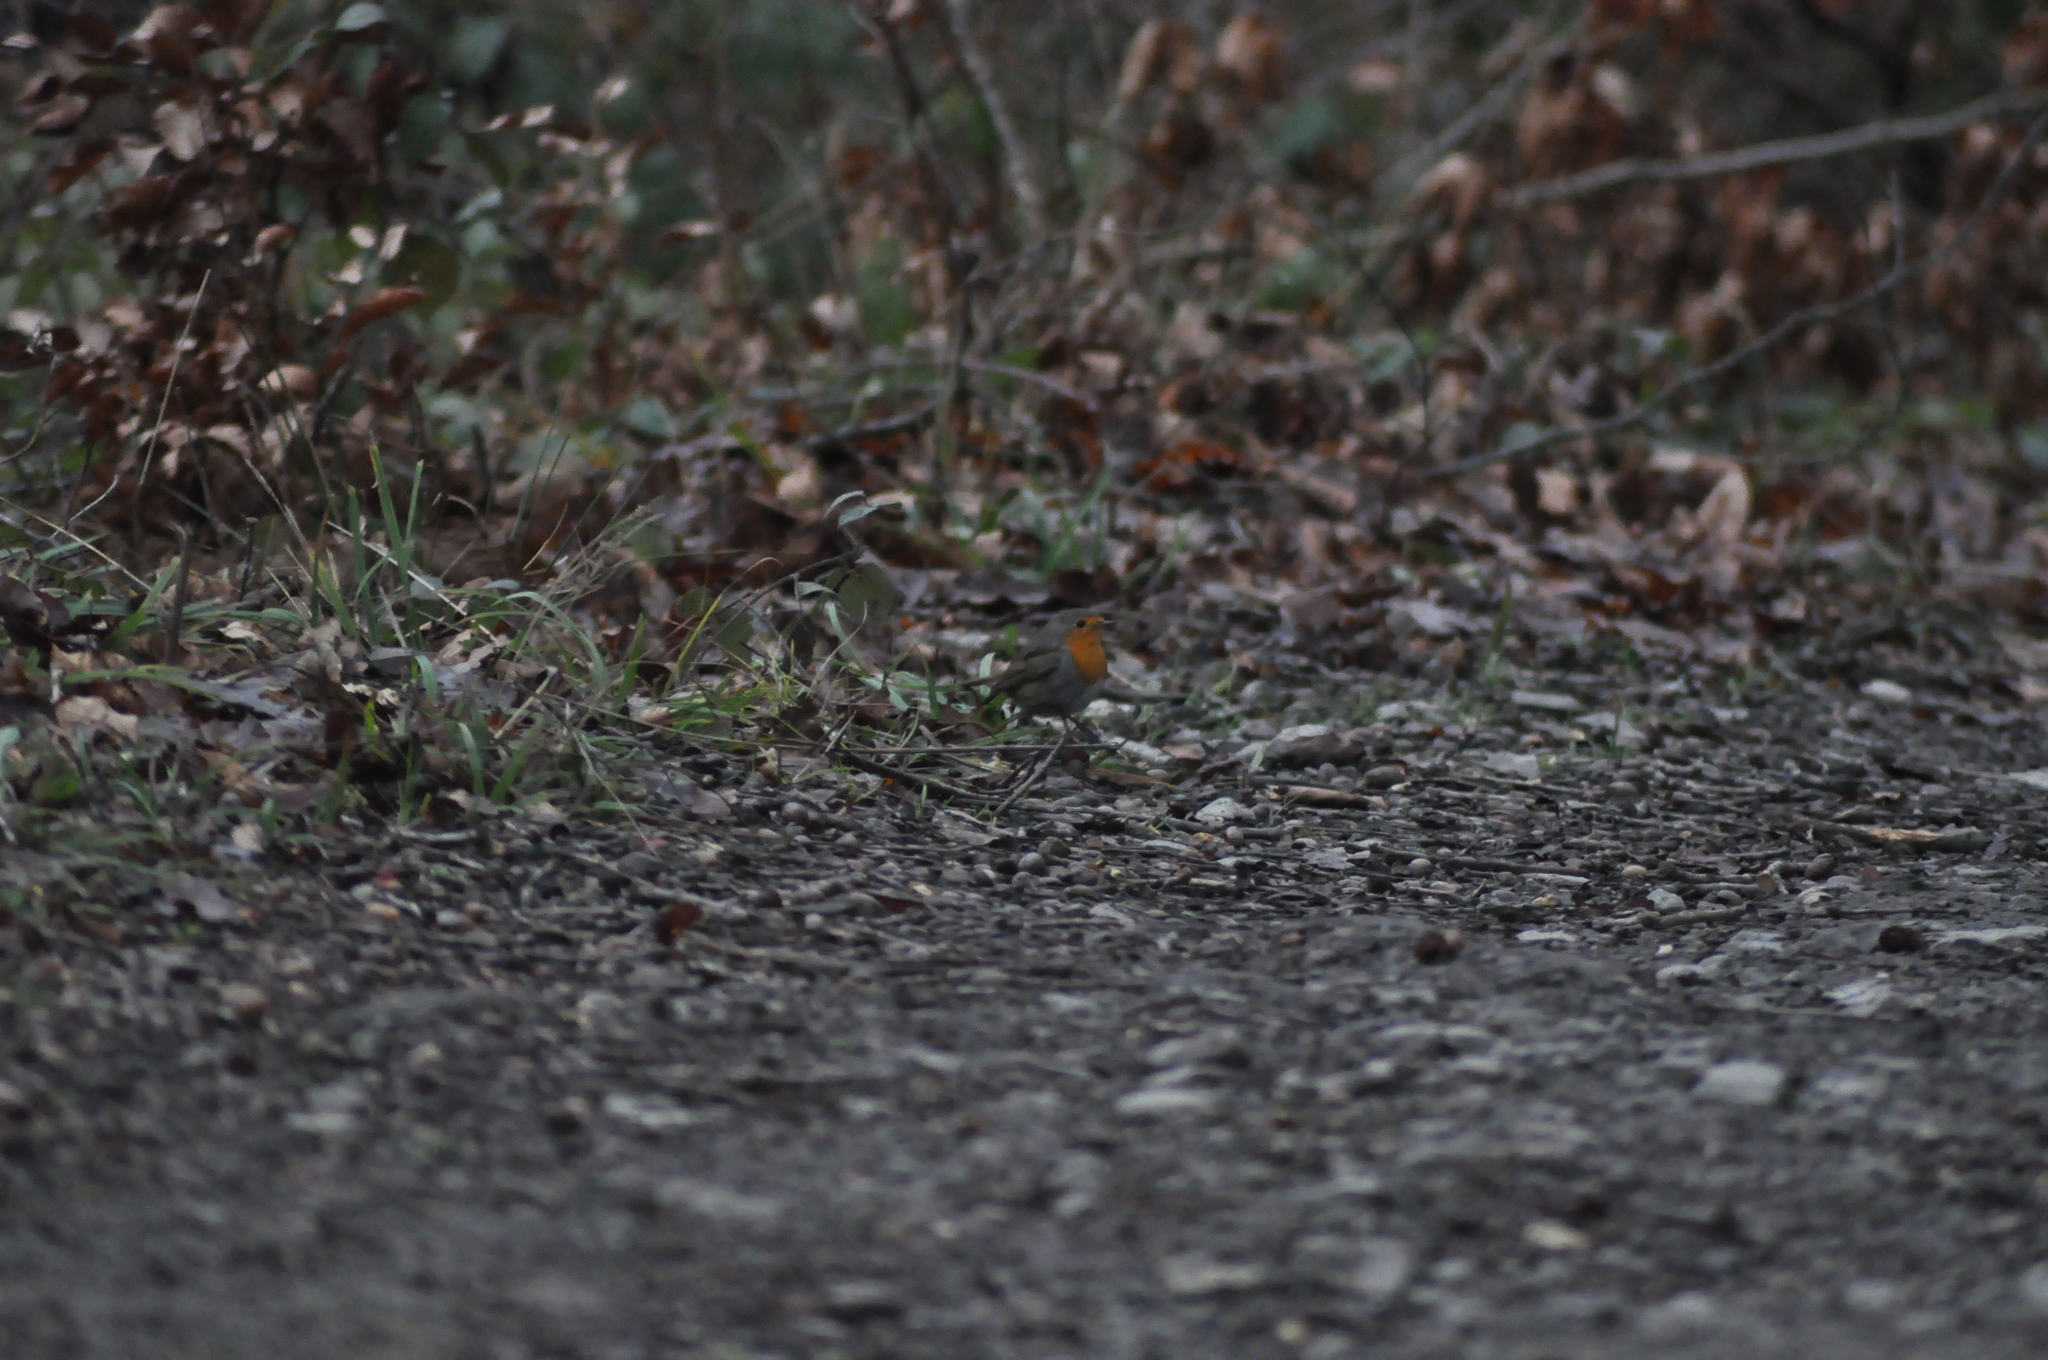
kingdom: Animalia
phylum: Chordata
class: Aves
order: Passeriformes
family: Muscicapidae
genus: Erithacus
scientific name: Erithacus rubecula
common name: European robin
